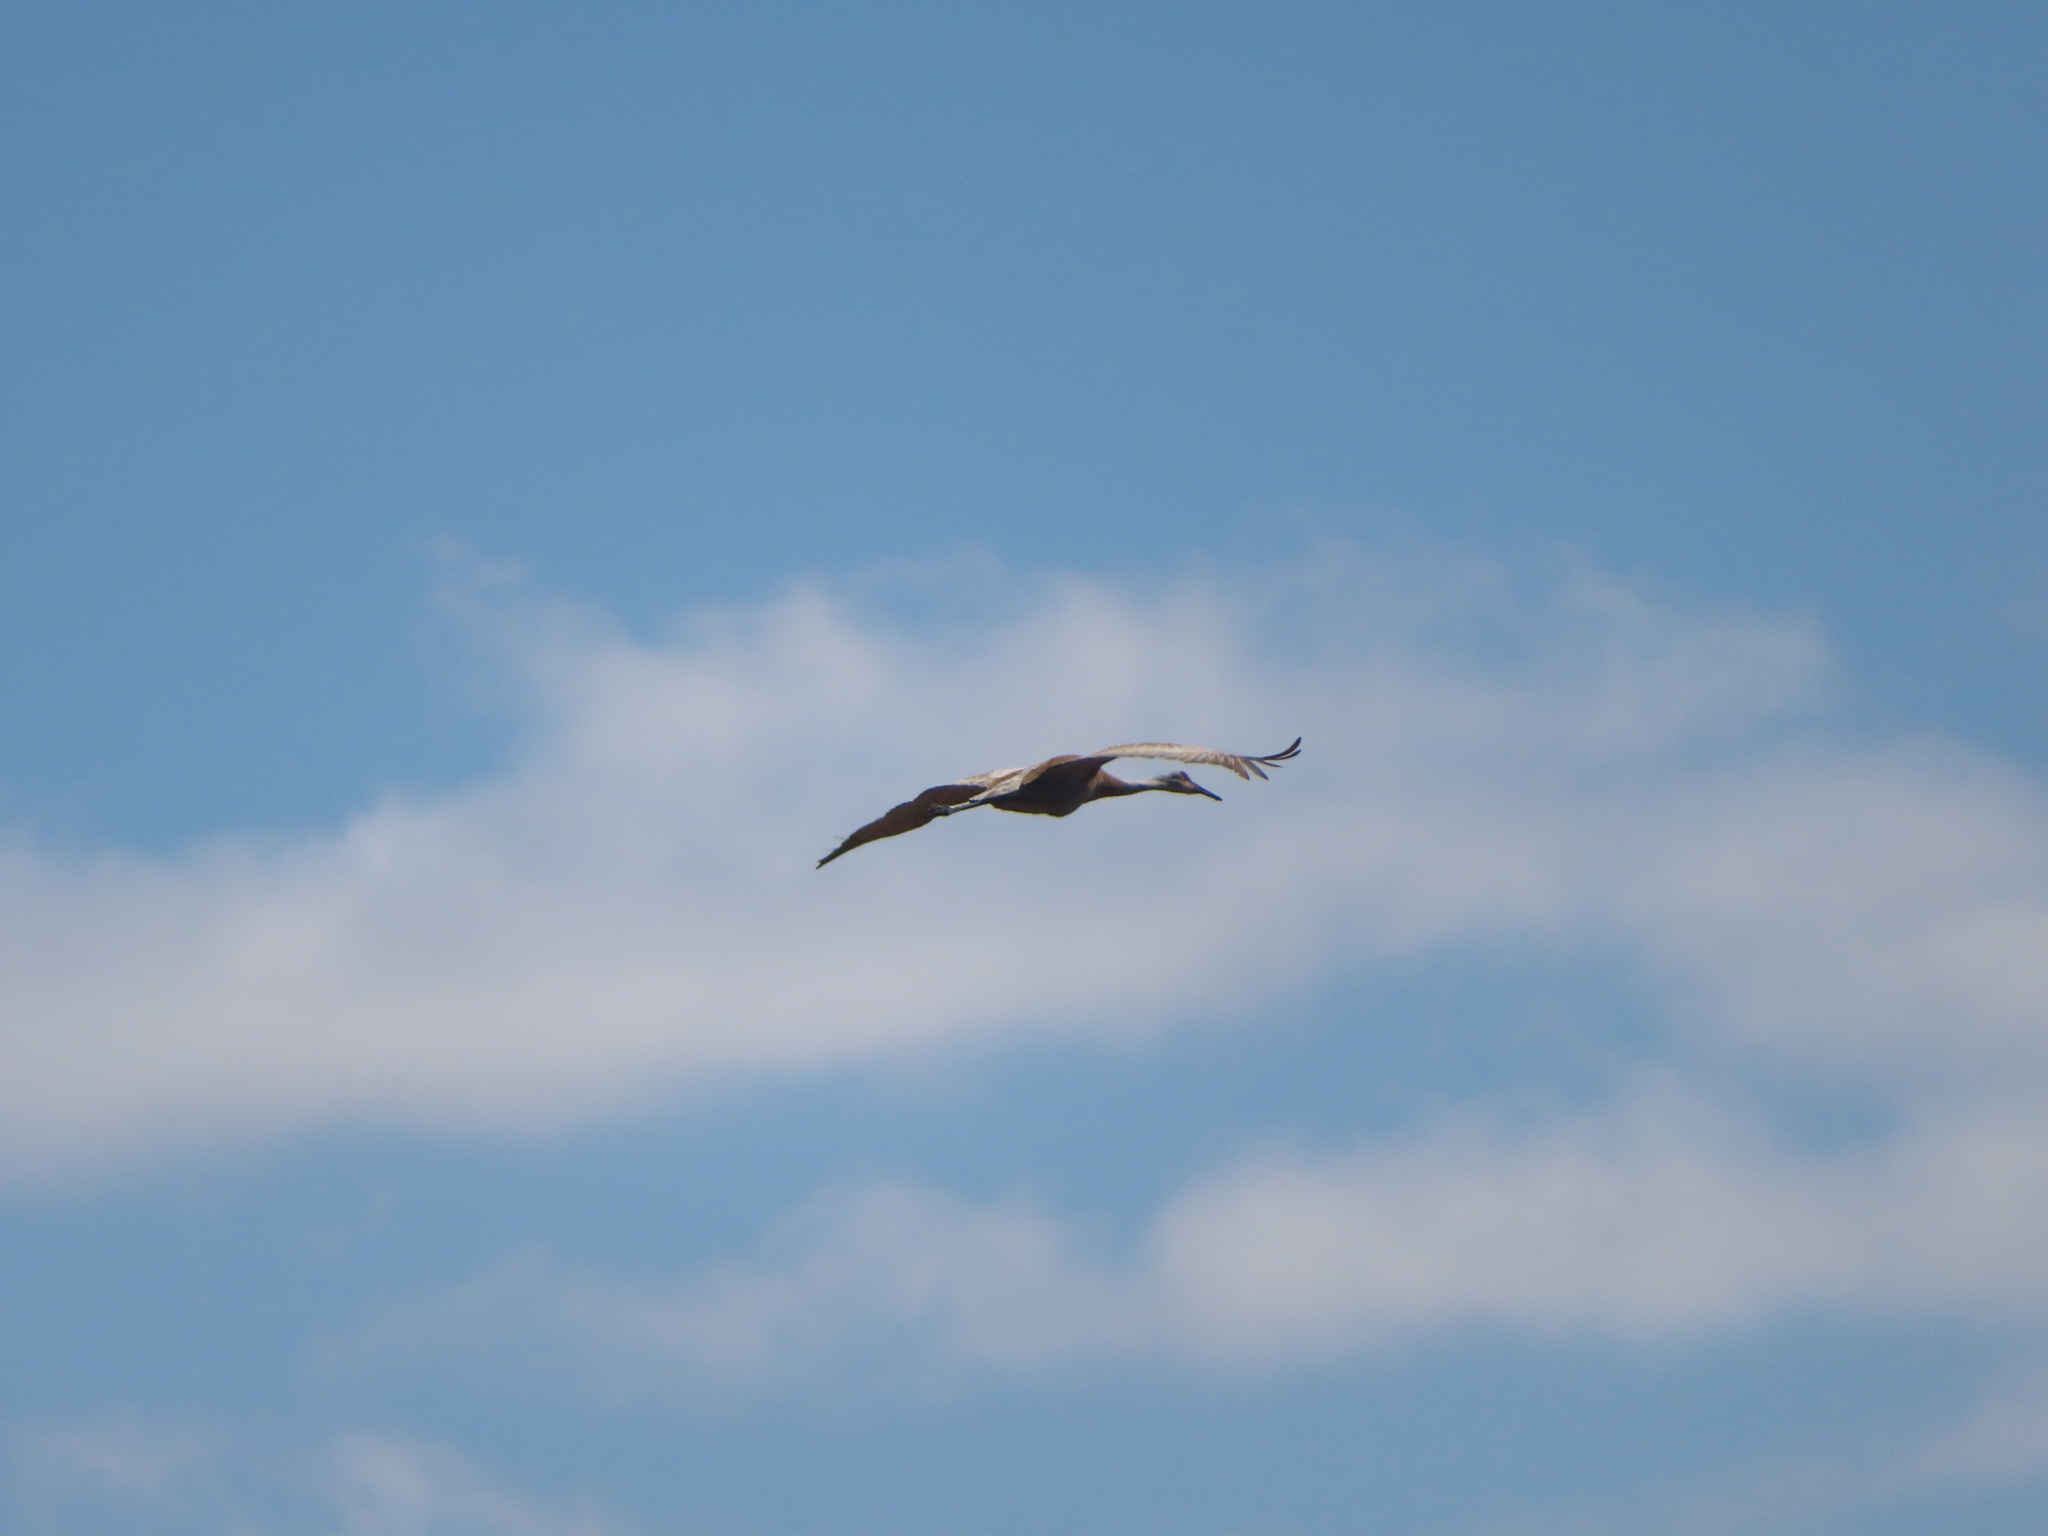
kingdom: Animalia
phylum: Chordata
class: Aves
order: Gruiformes
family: Gruidae
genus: Grus
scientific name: Grus canadensis
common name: Sandhill crane
